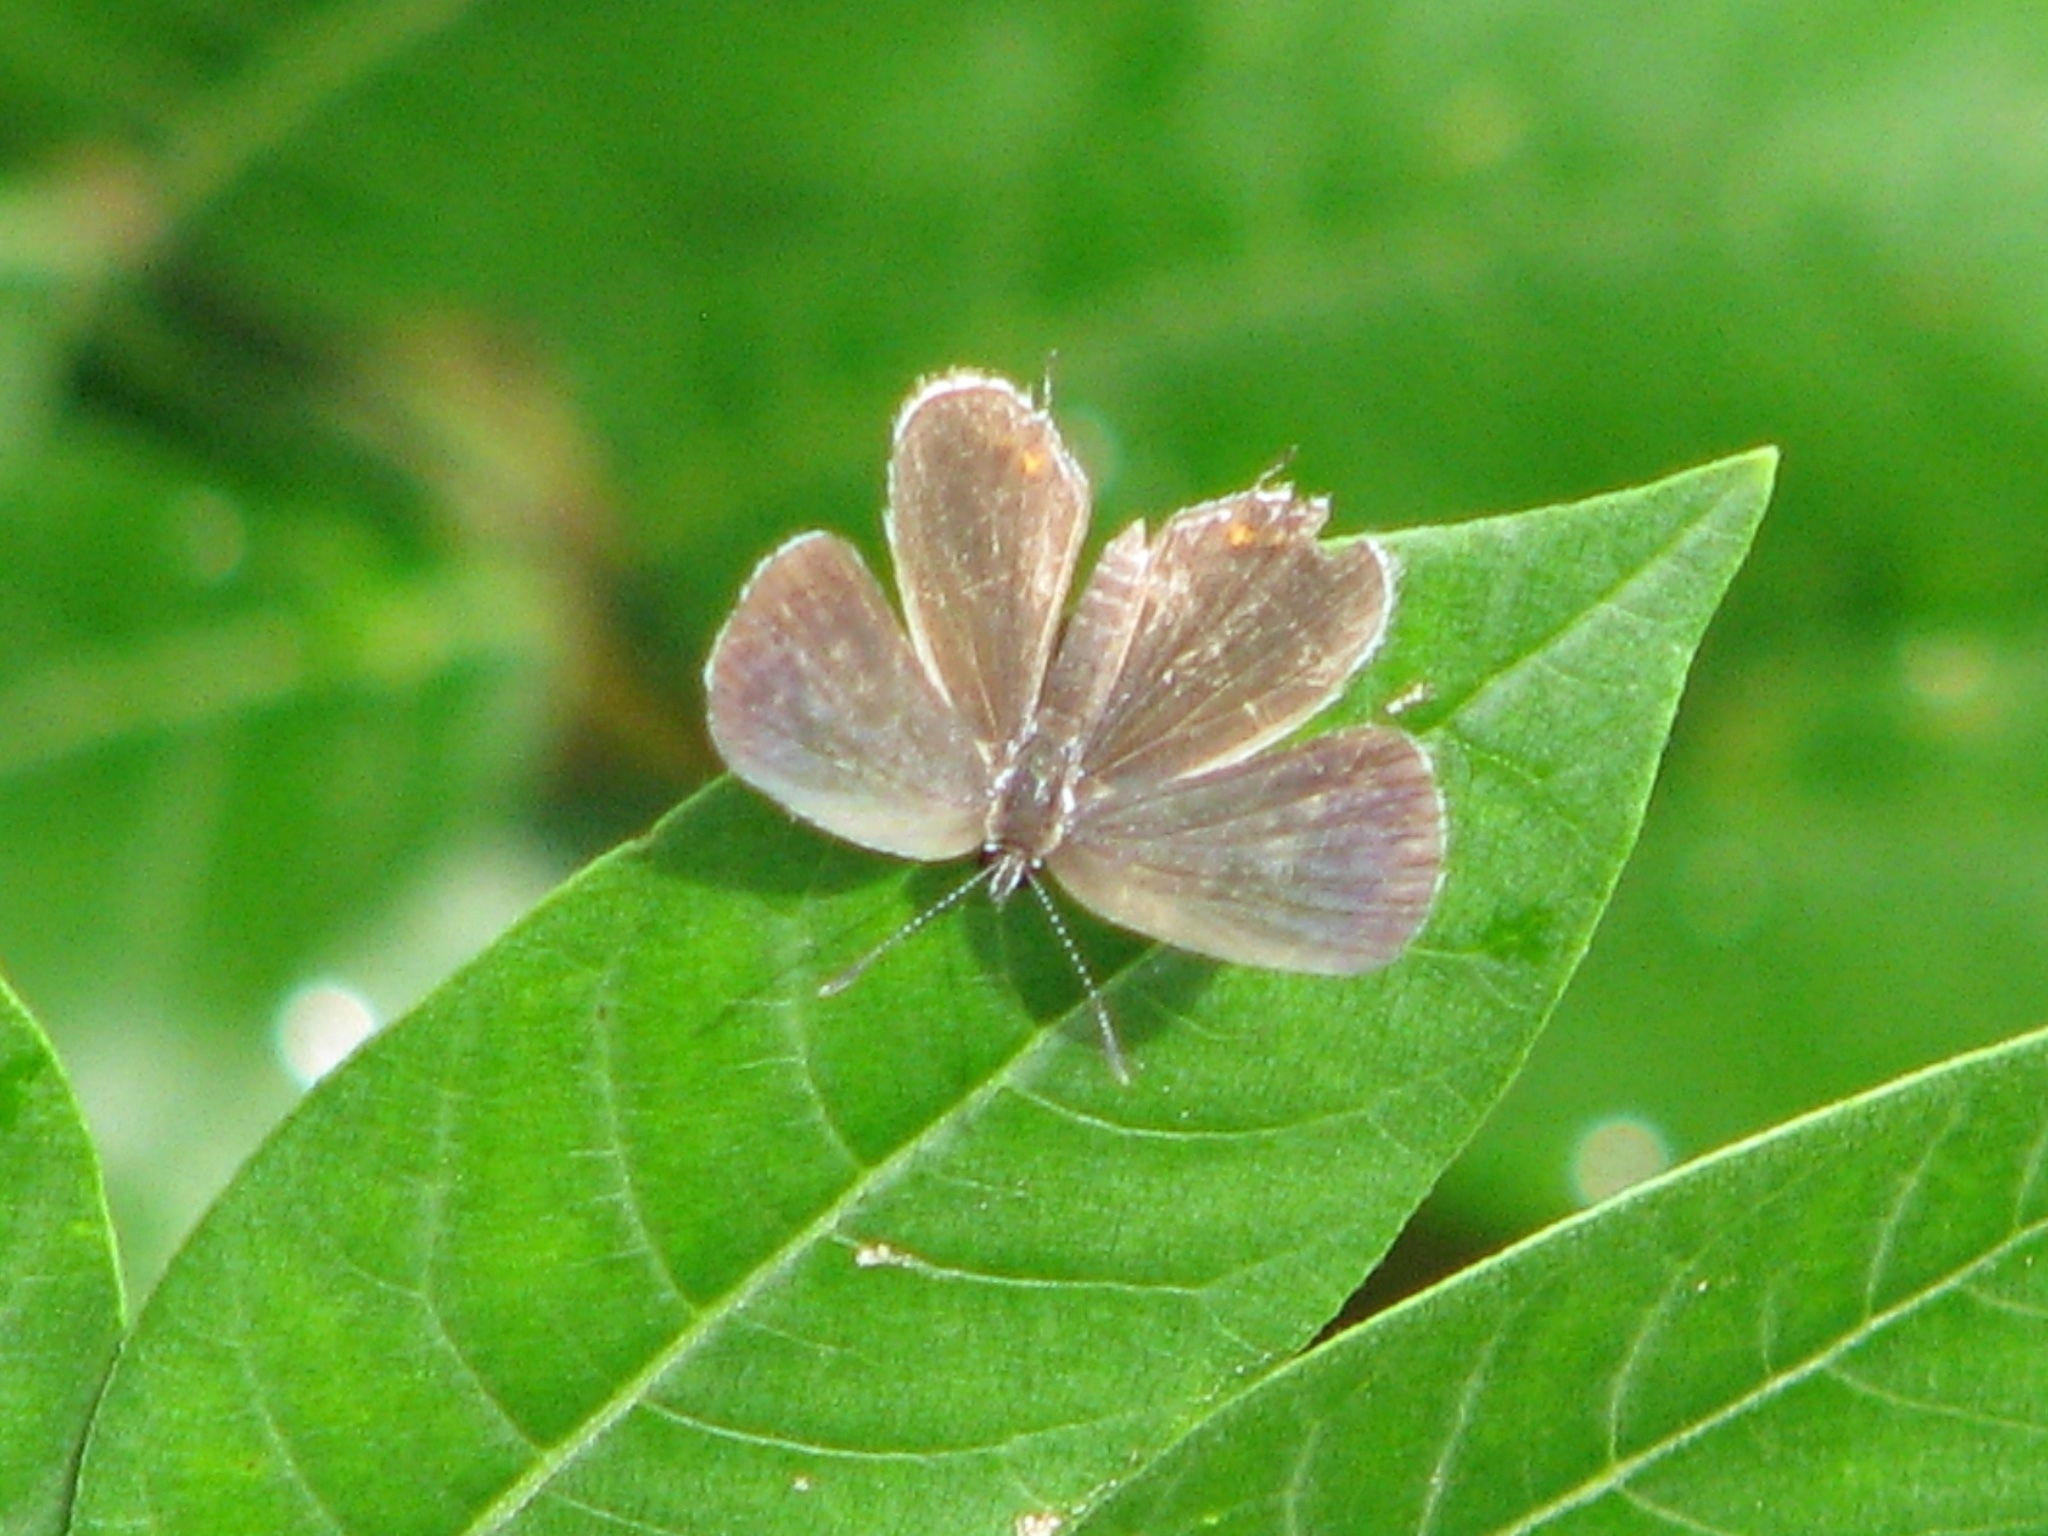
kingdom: Animalia
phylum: Arthropoda
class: Insecta
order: Lepidoptera
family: Lycaenidae
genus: Elkalyce
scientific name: Elkalyce comyntas
